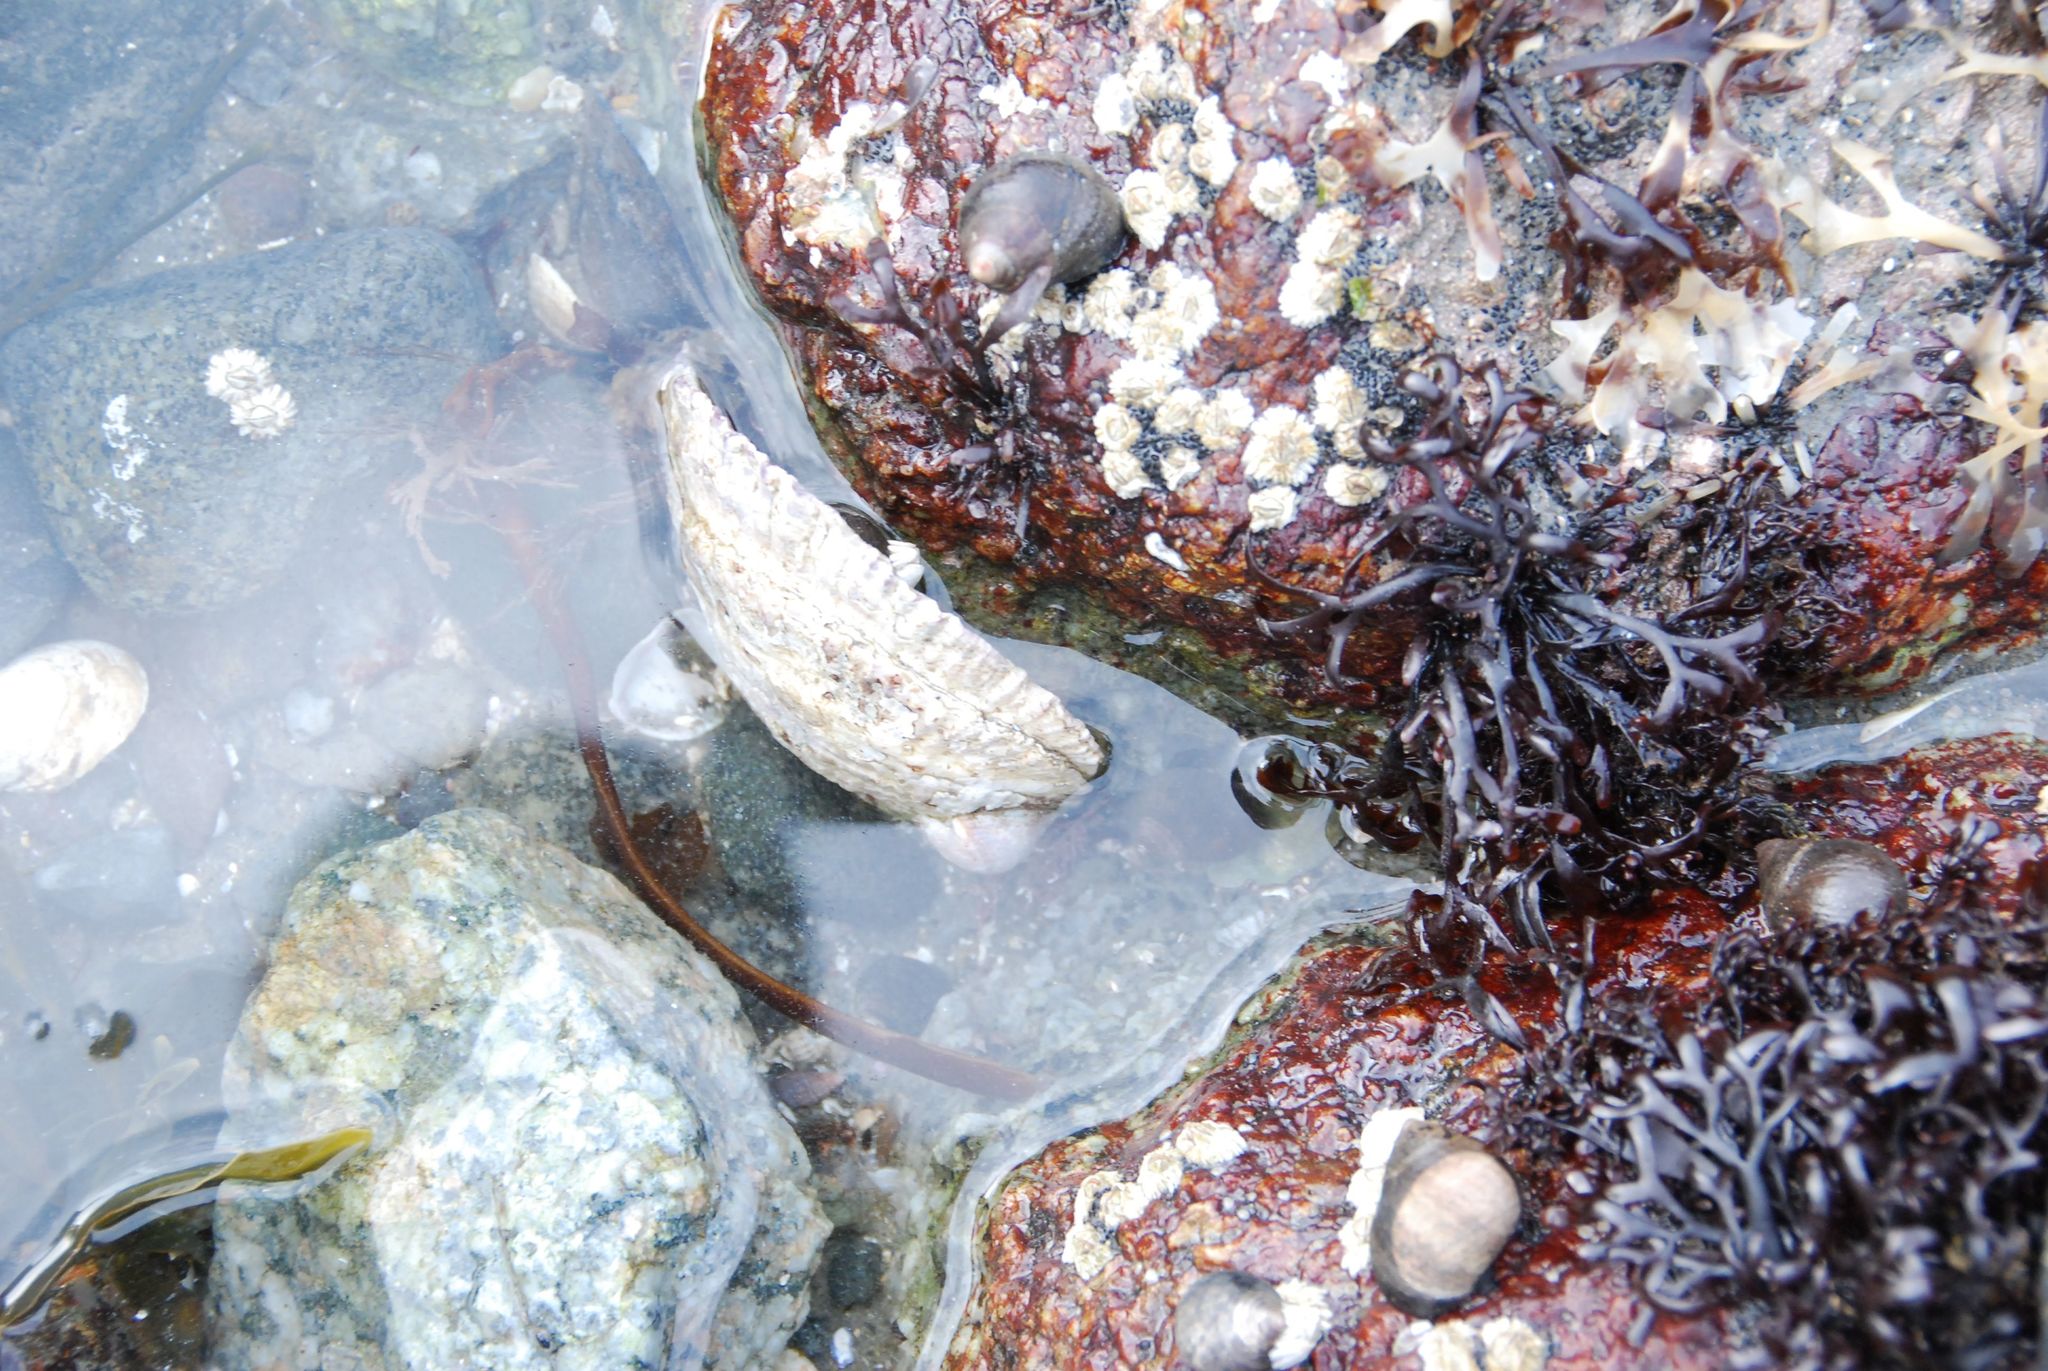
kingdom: Animalia
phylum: Mollusca
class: Bivalvia
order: Ostreida
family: Ostreidae
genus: Ostrea
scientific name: Ostrea edulis
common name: Flat oyster
